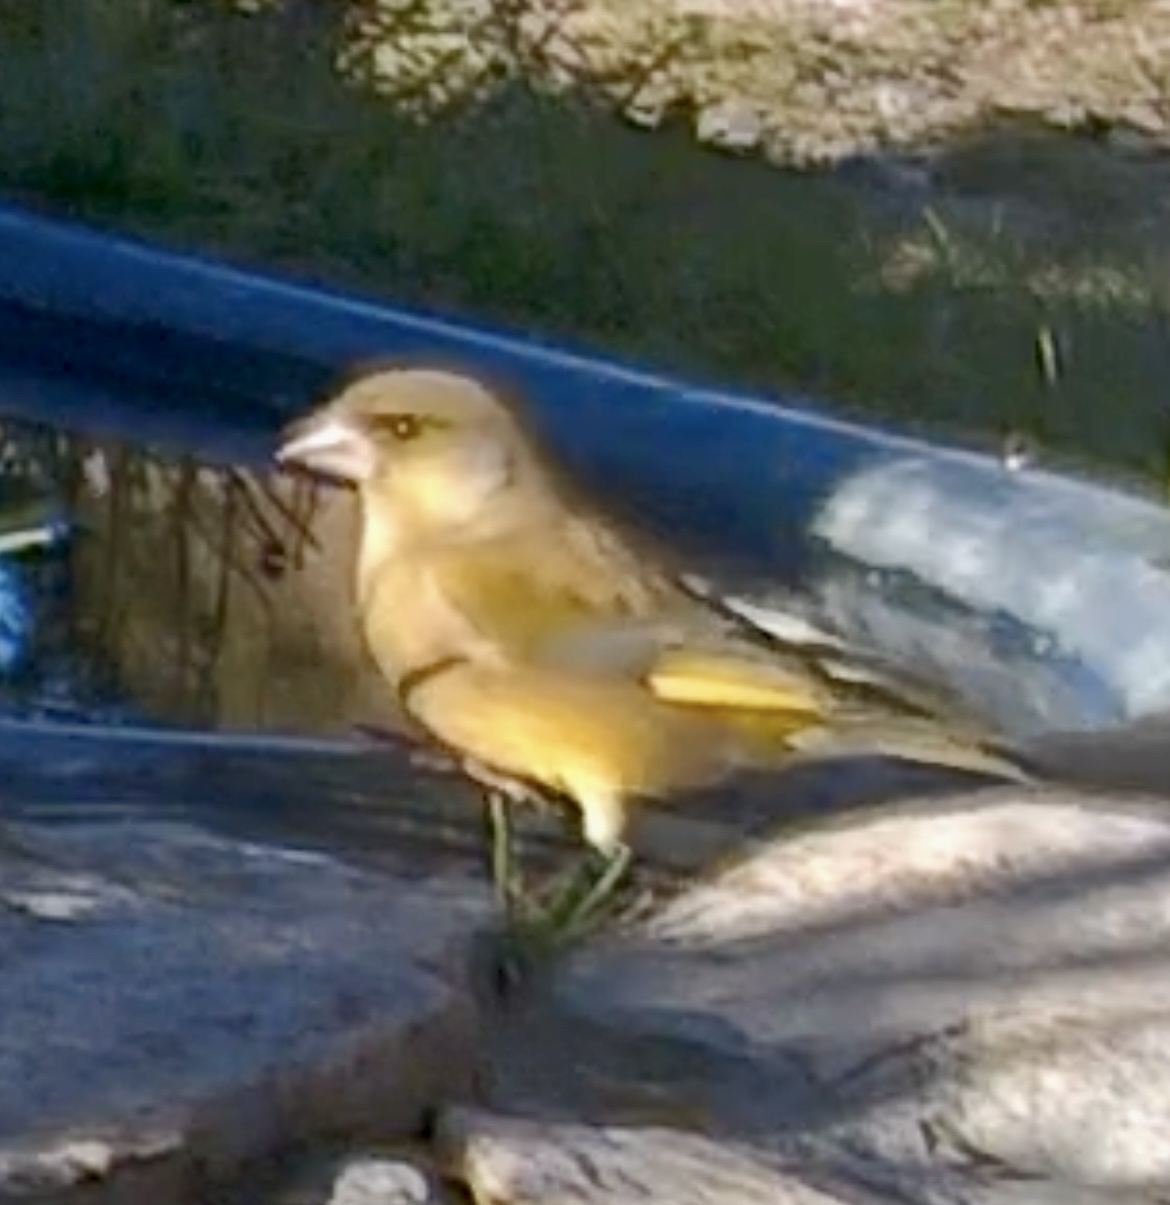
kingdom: Plantae
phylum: Tracheophyta
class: Liliopsida
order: Poales
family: Poaceae
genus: Chloris
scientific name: Chloris chloris
